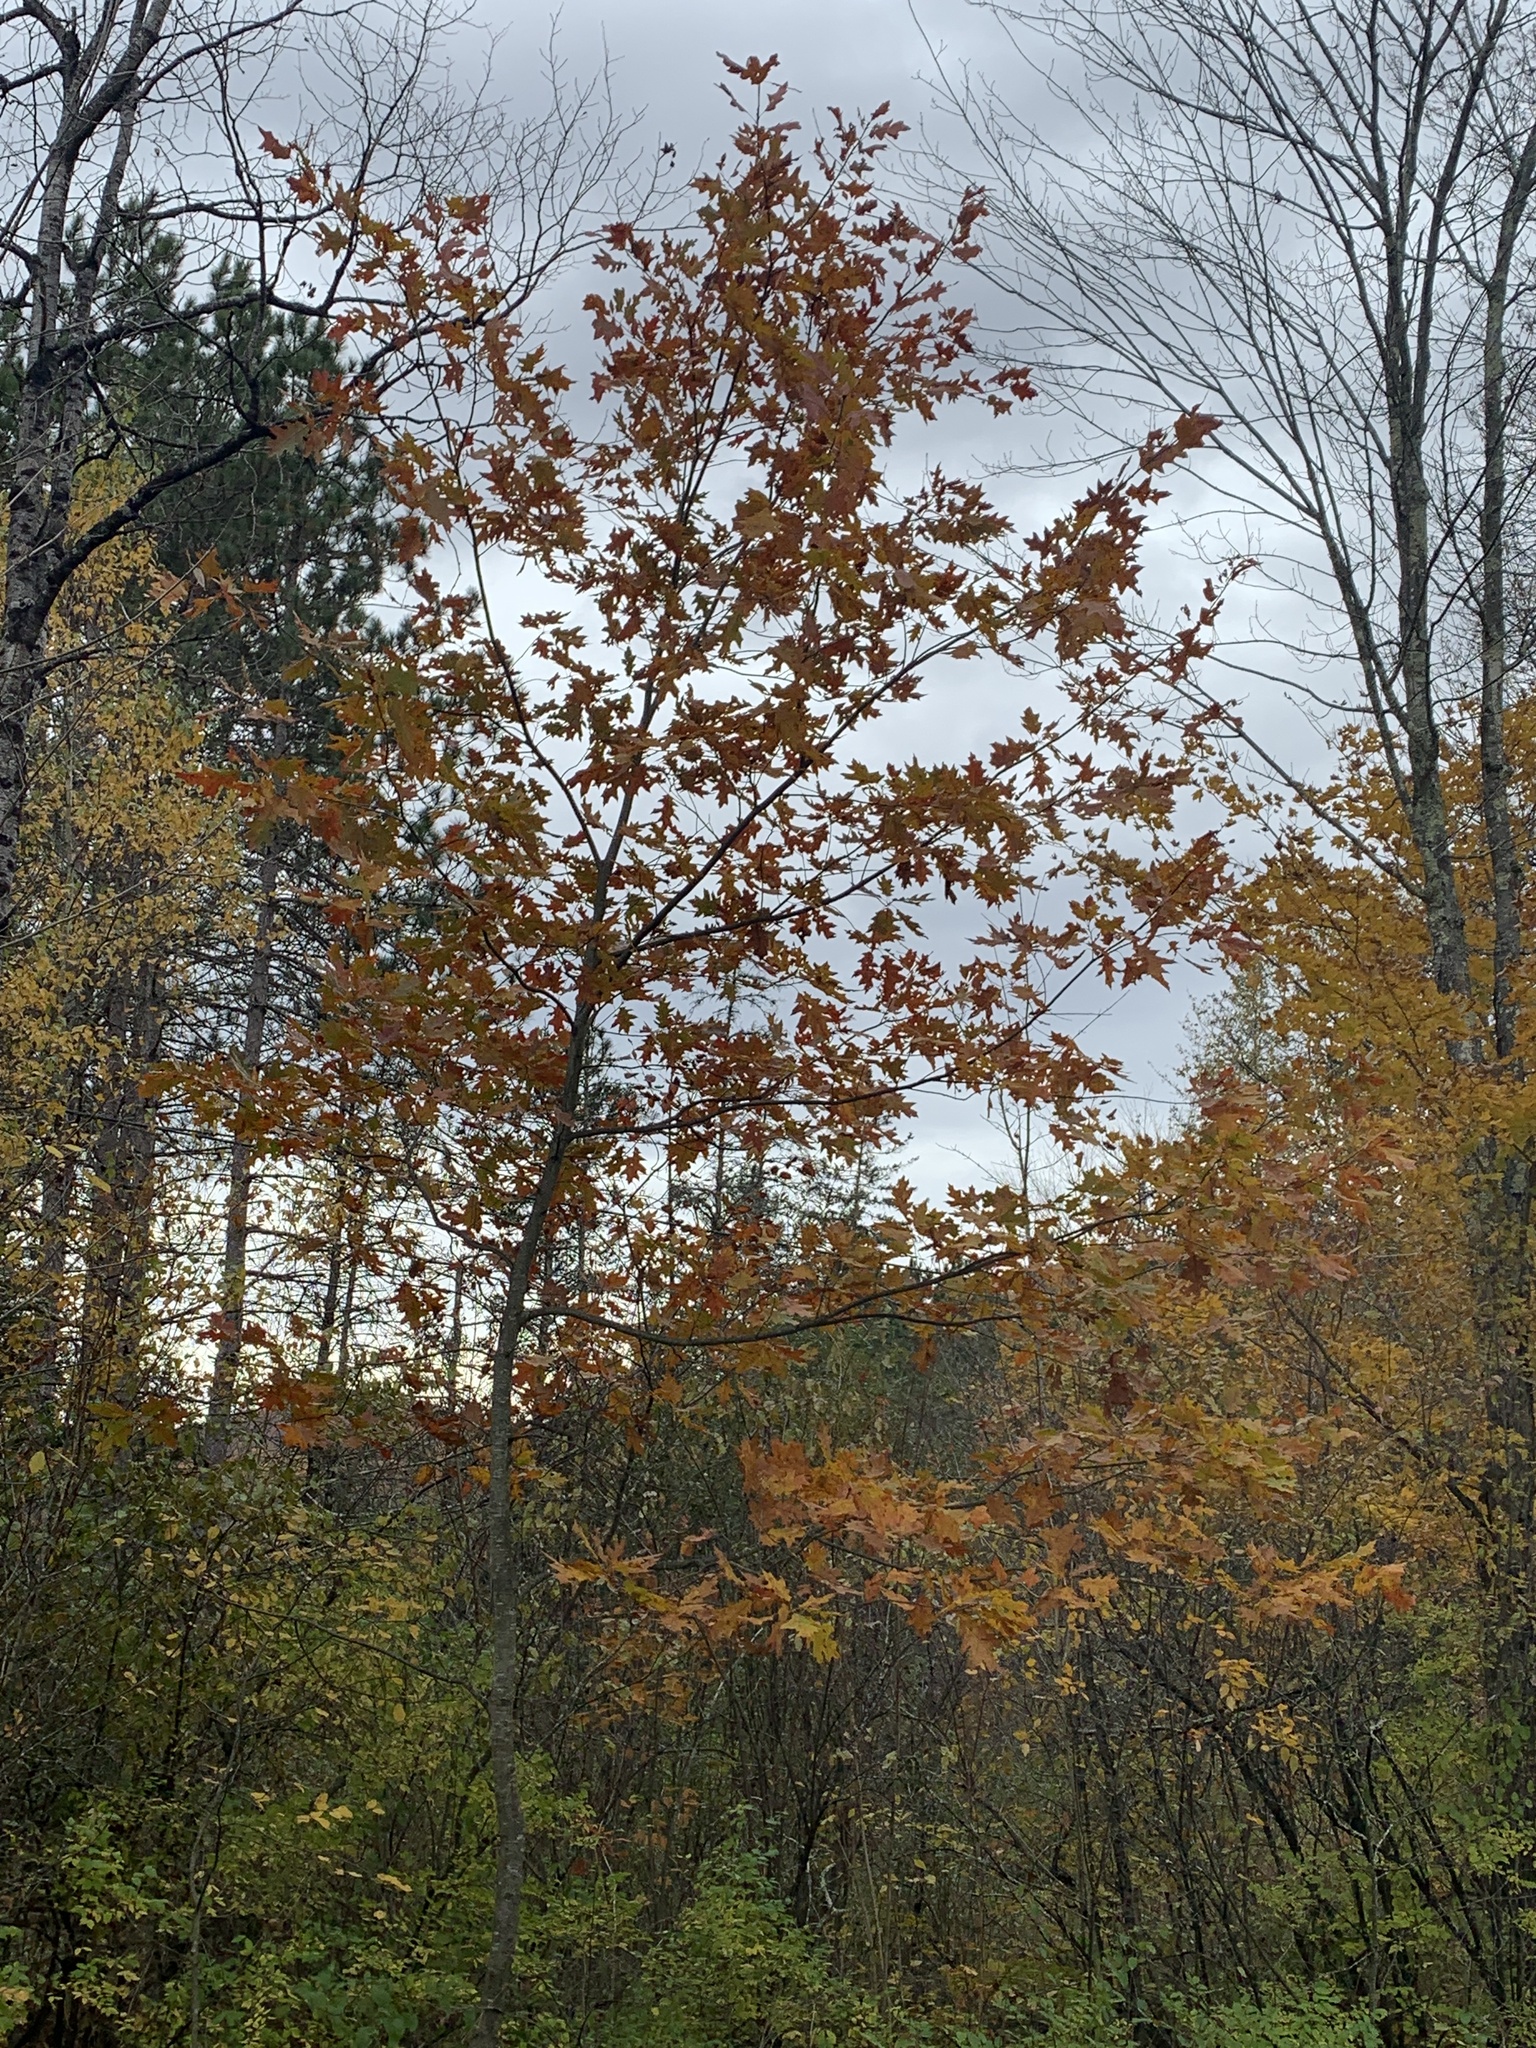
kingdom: Plantae
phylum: Tracheophyta
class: Magnoliopsida
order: Fagales
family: Fagaceae
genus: Quercus
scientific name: Quercus rubra
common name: Red oak
